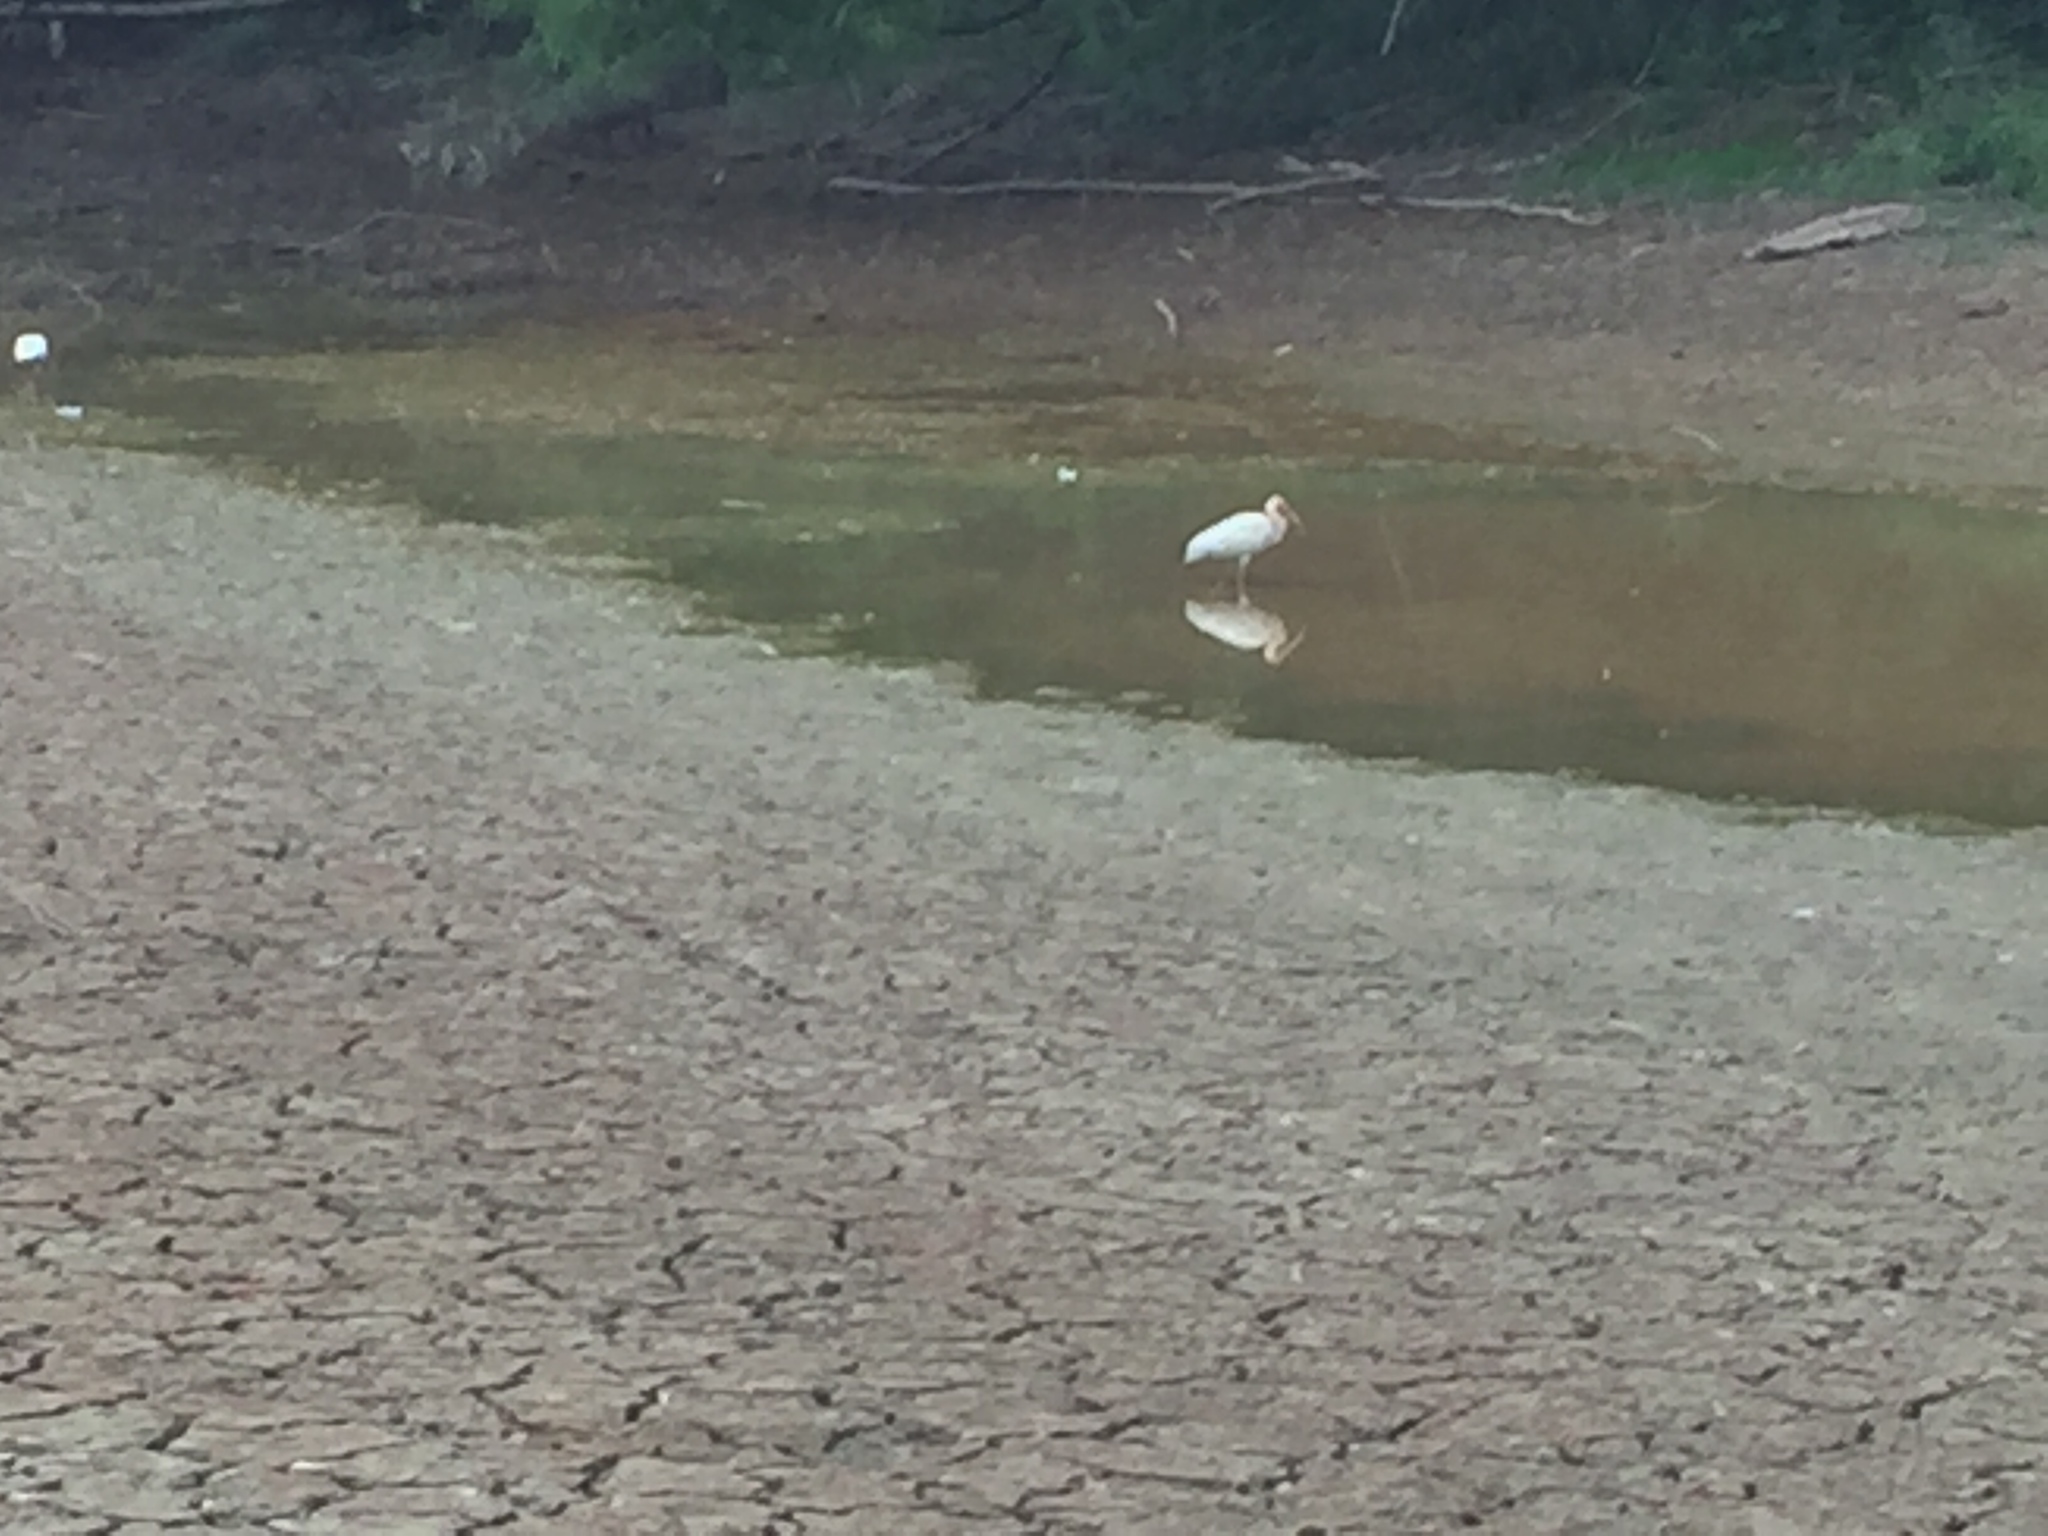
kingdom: Animalia
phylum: Chordata
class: Aves
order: Pelecaniformes
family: Threskiornithidae
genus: Eudocimus
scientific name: Eudocimus albus
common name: White ibis
